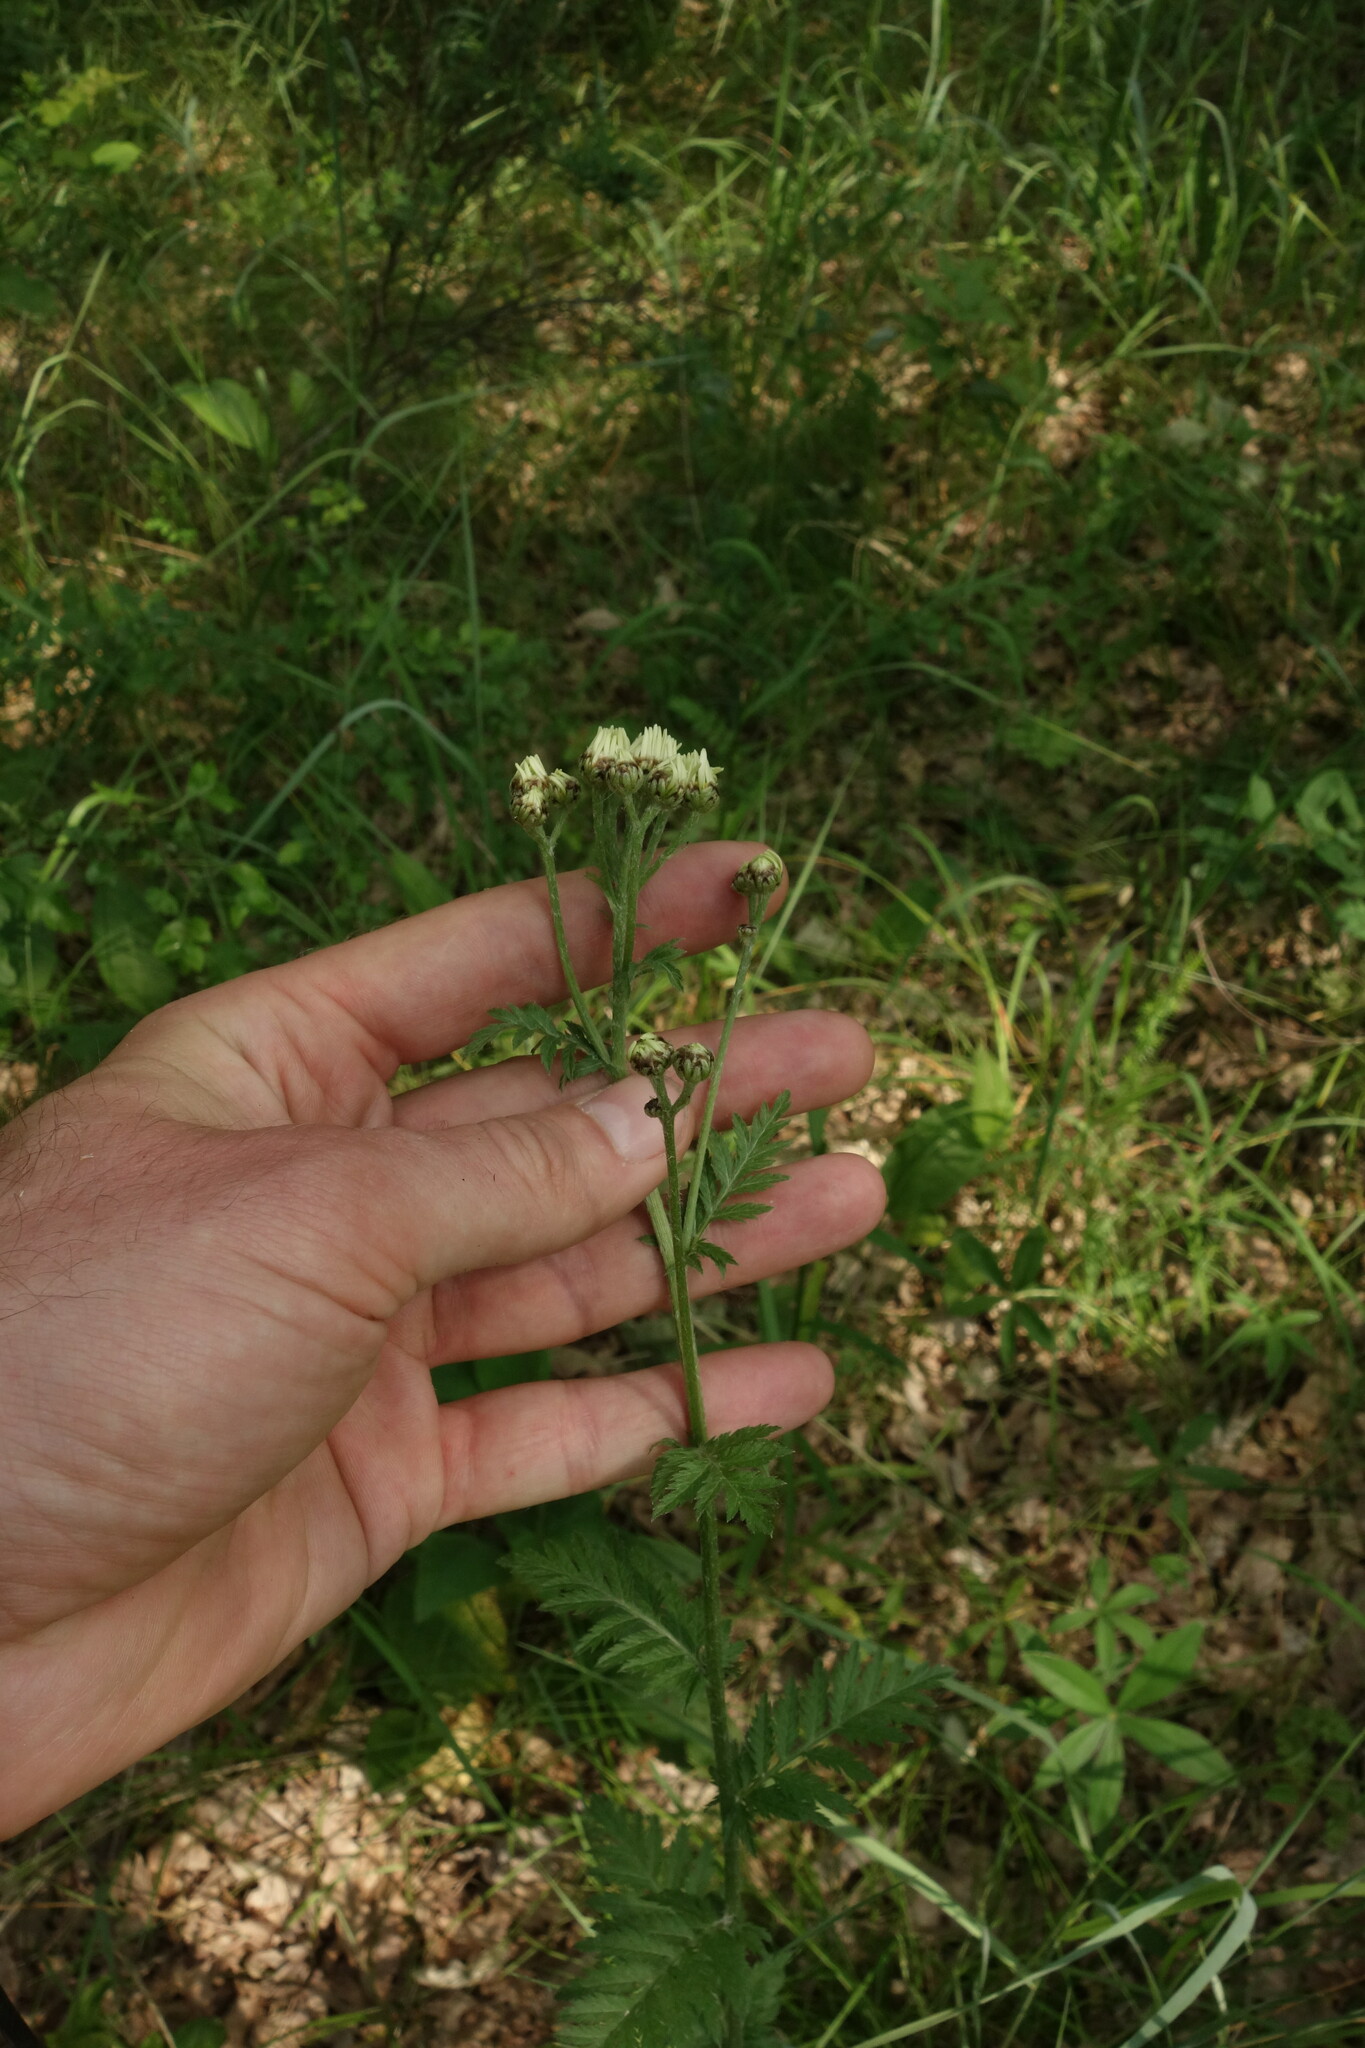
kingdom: Plantae
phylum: Tracheophyta
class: Magnoliopsida
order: Asterales
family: Asteraceae
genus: Tanacetum
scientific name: Tanacetum corymbosum
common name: Scentless feverfew
